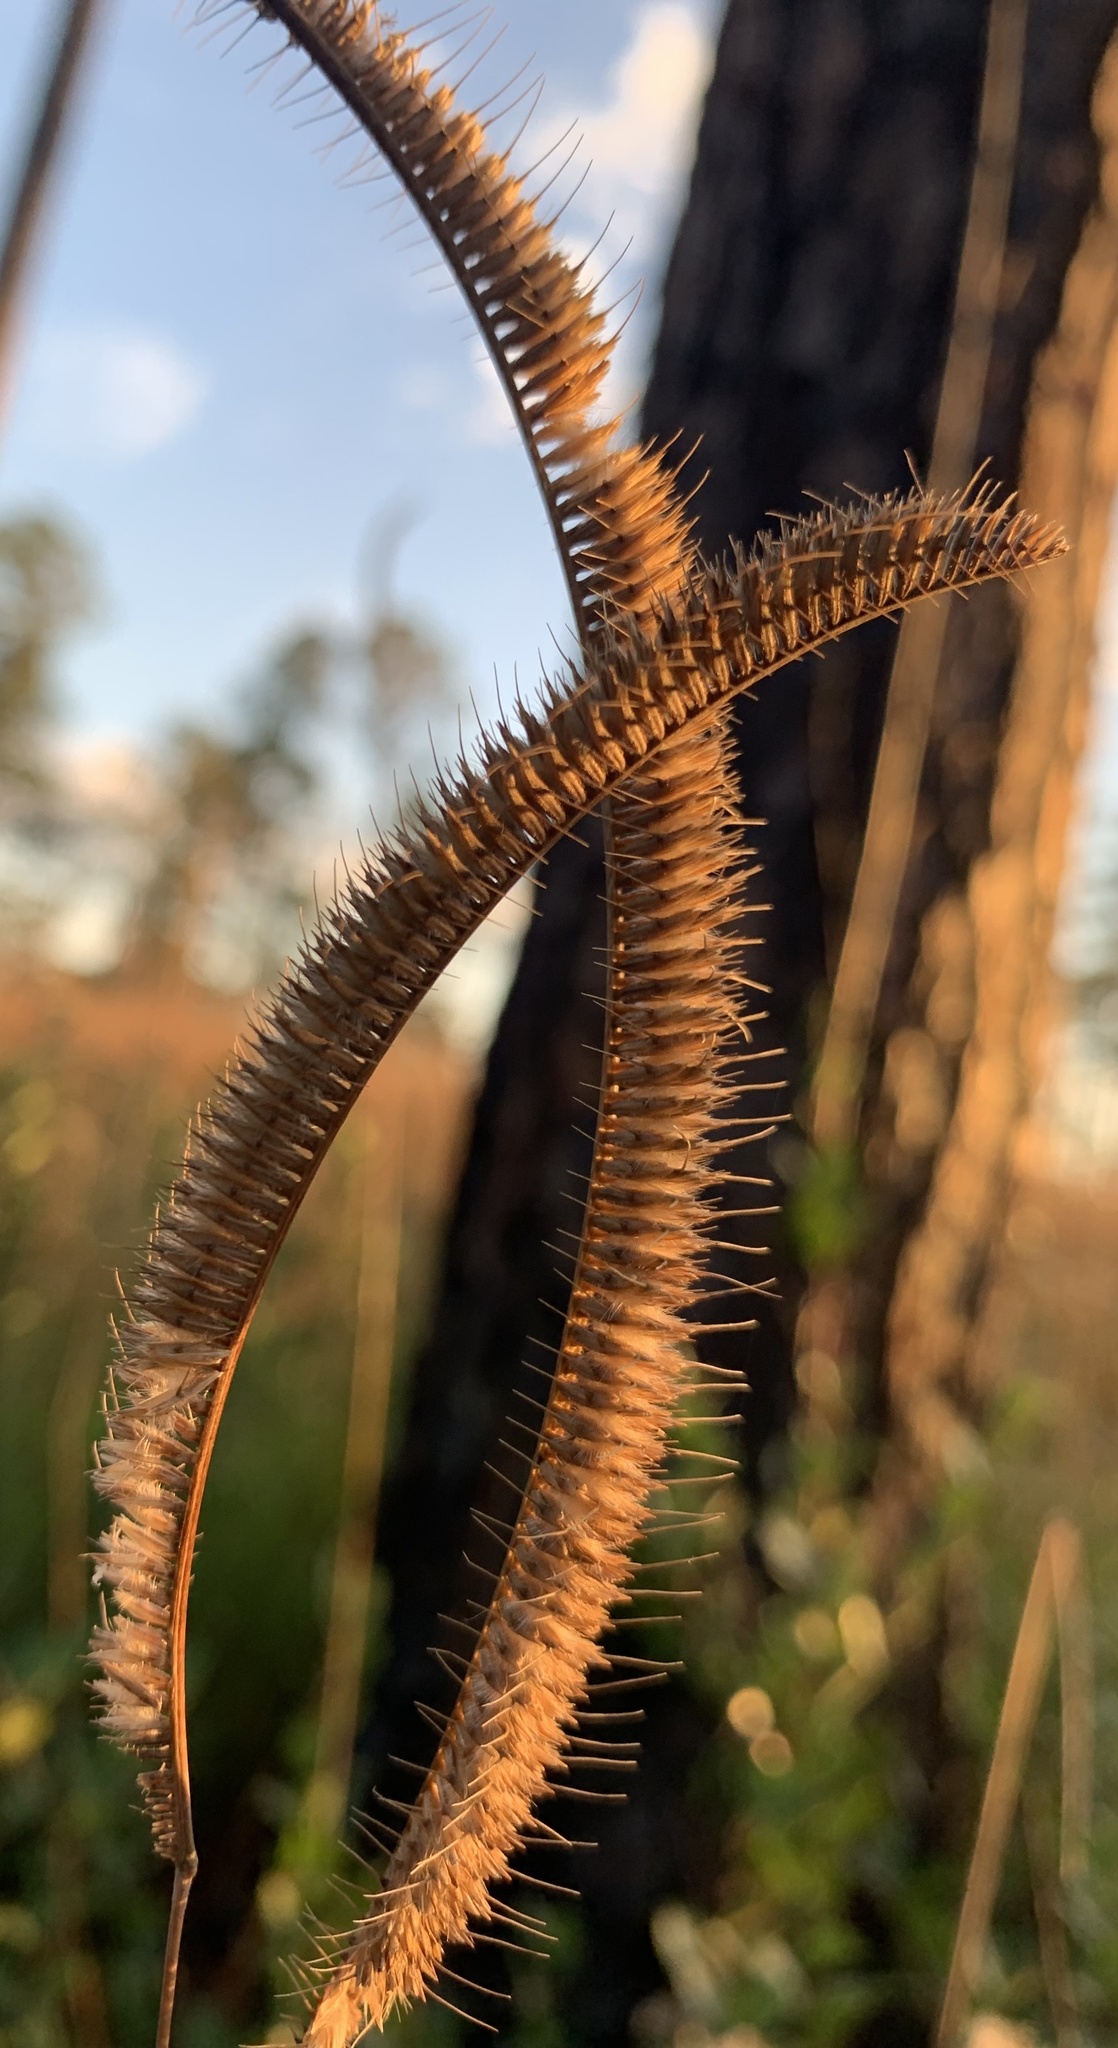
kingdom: Plantae
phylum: Tracheophyta
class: Liliopsida
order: Poales
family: Poaceae
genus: Ctenium
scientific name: Ctenium aromaticum
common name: Toothache grass
